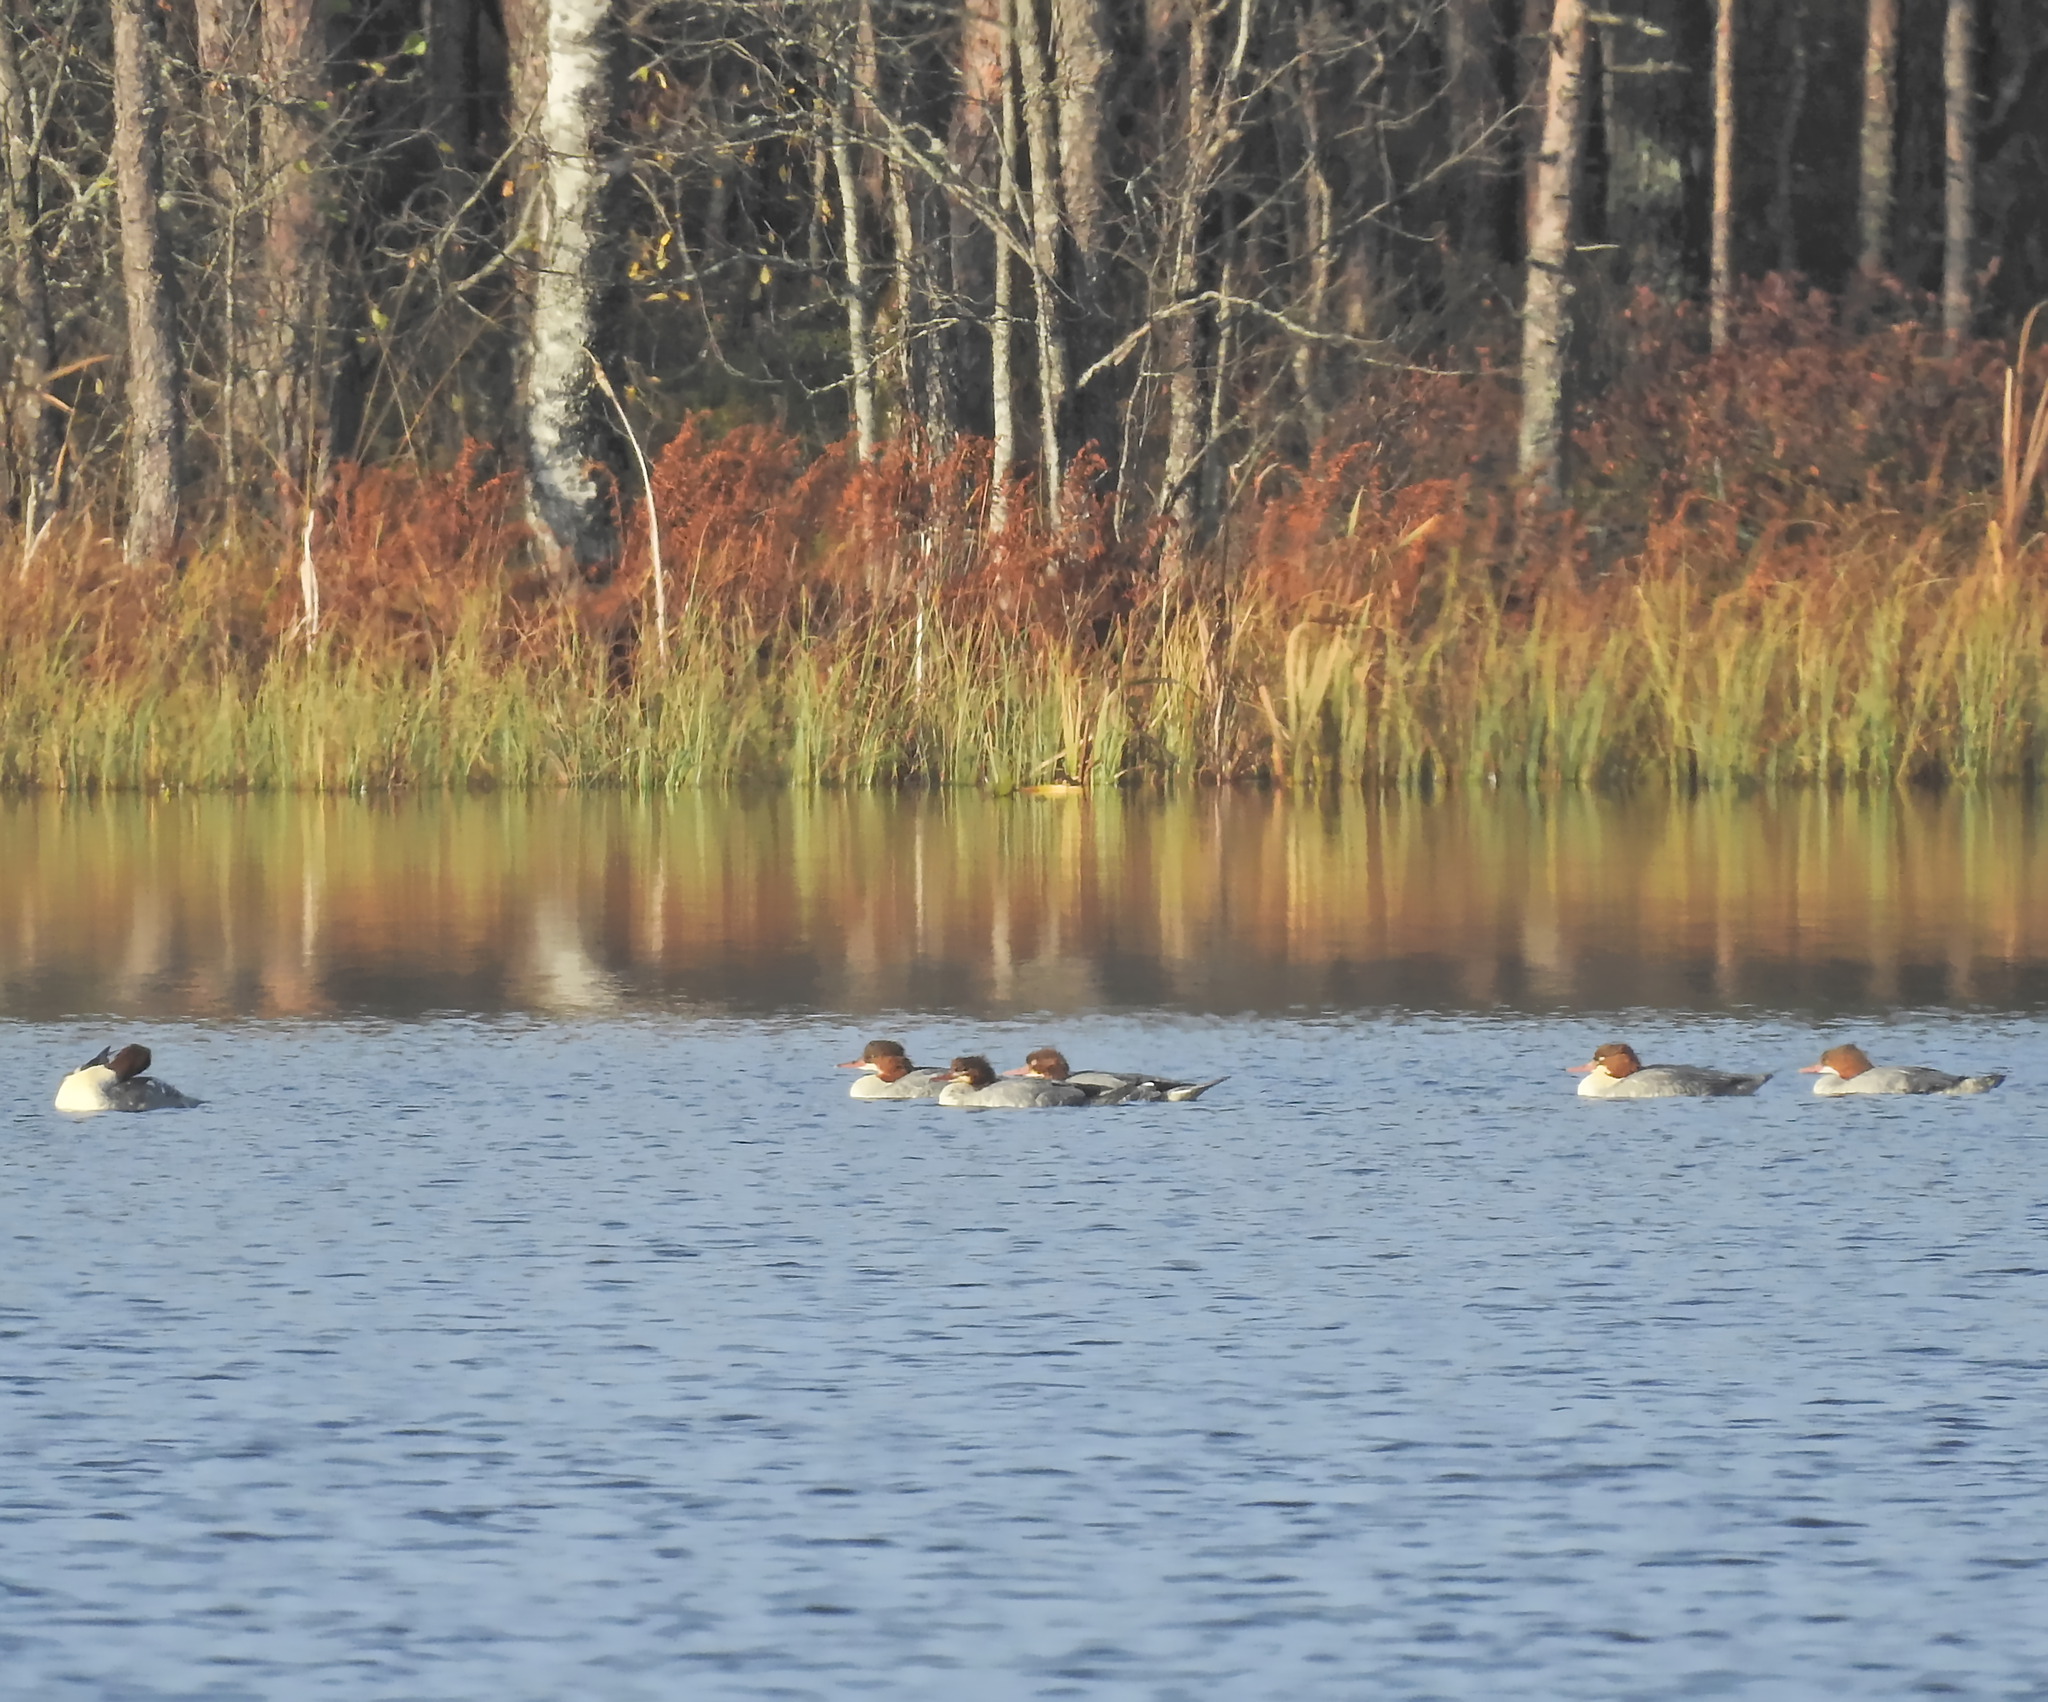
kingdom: Animalia
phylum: Chordata
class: Aves
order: Anseriformes
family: Anatidae
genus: Mergus
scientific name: Mergus merganser
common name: Common merganser
